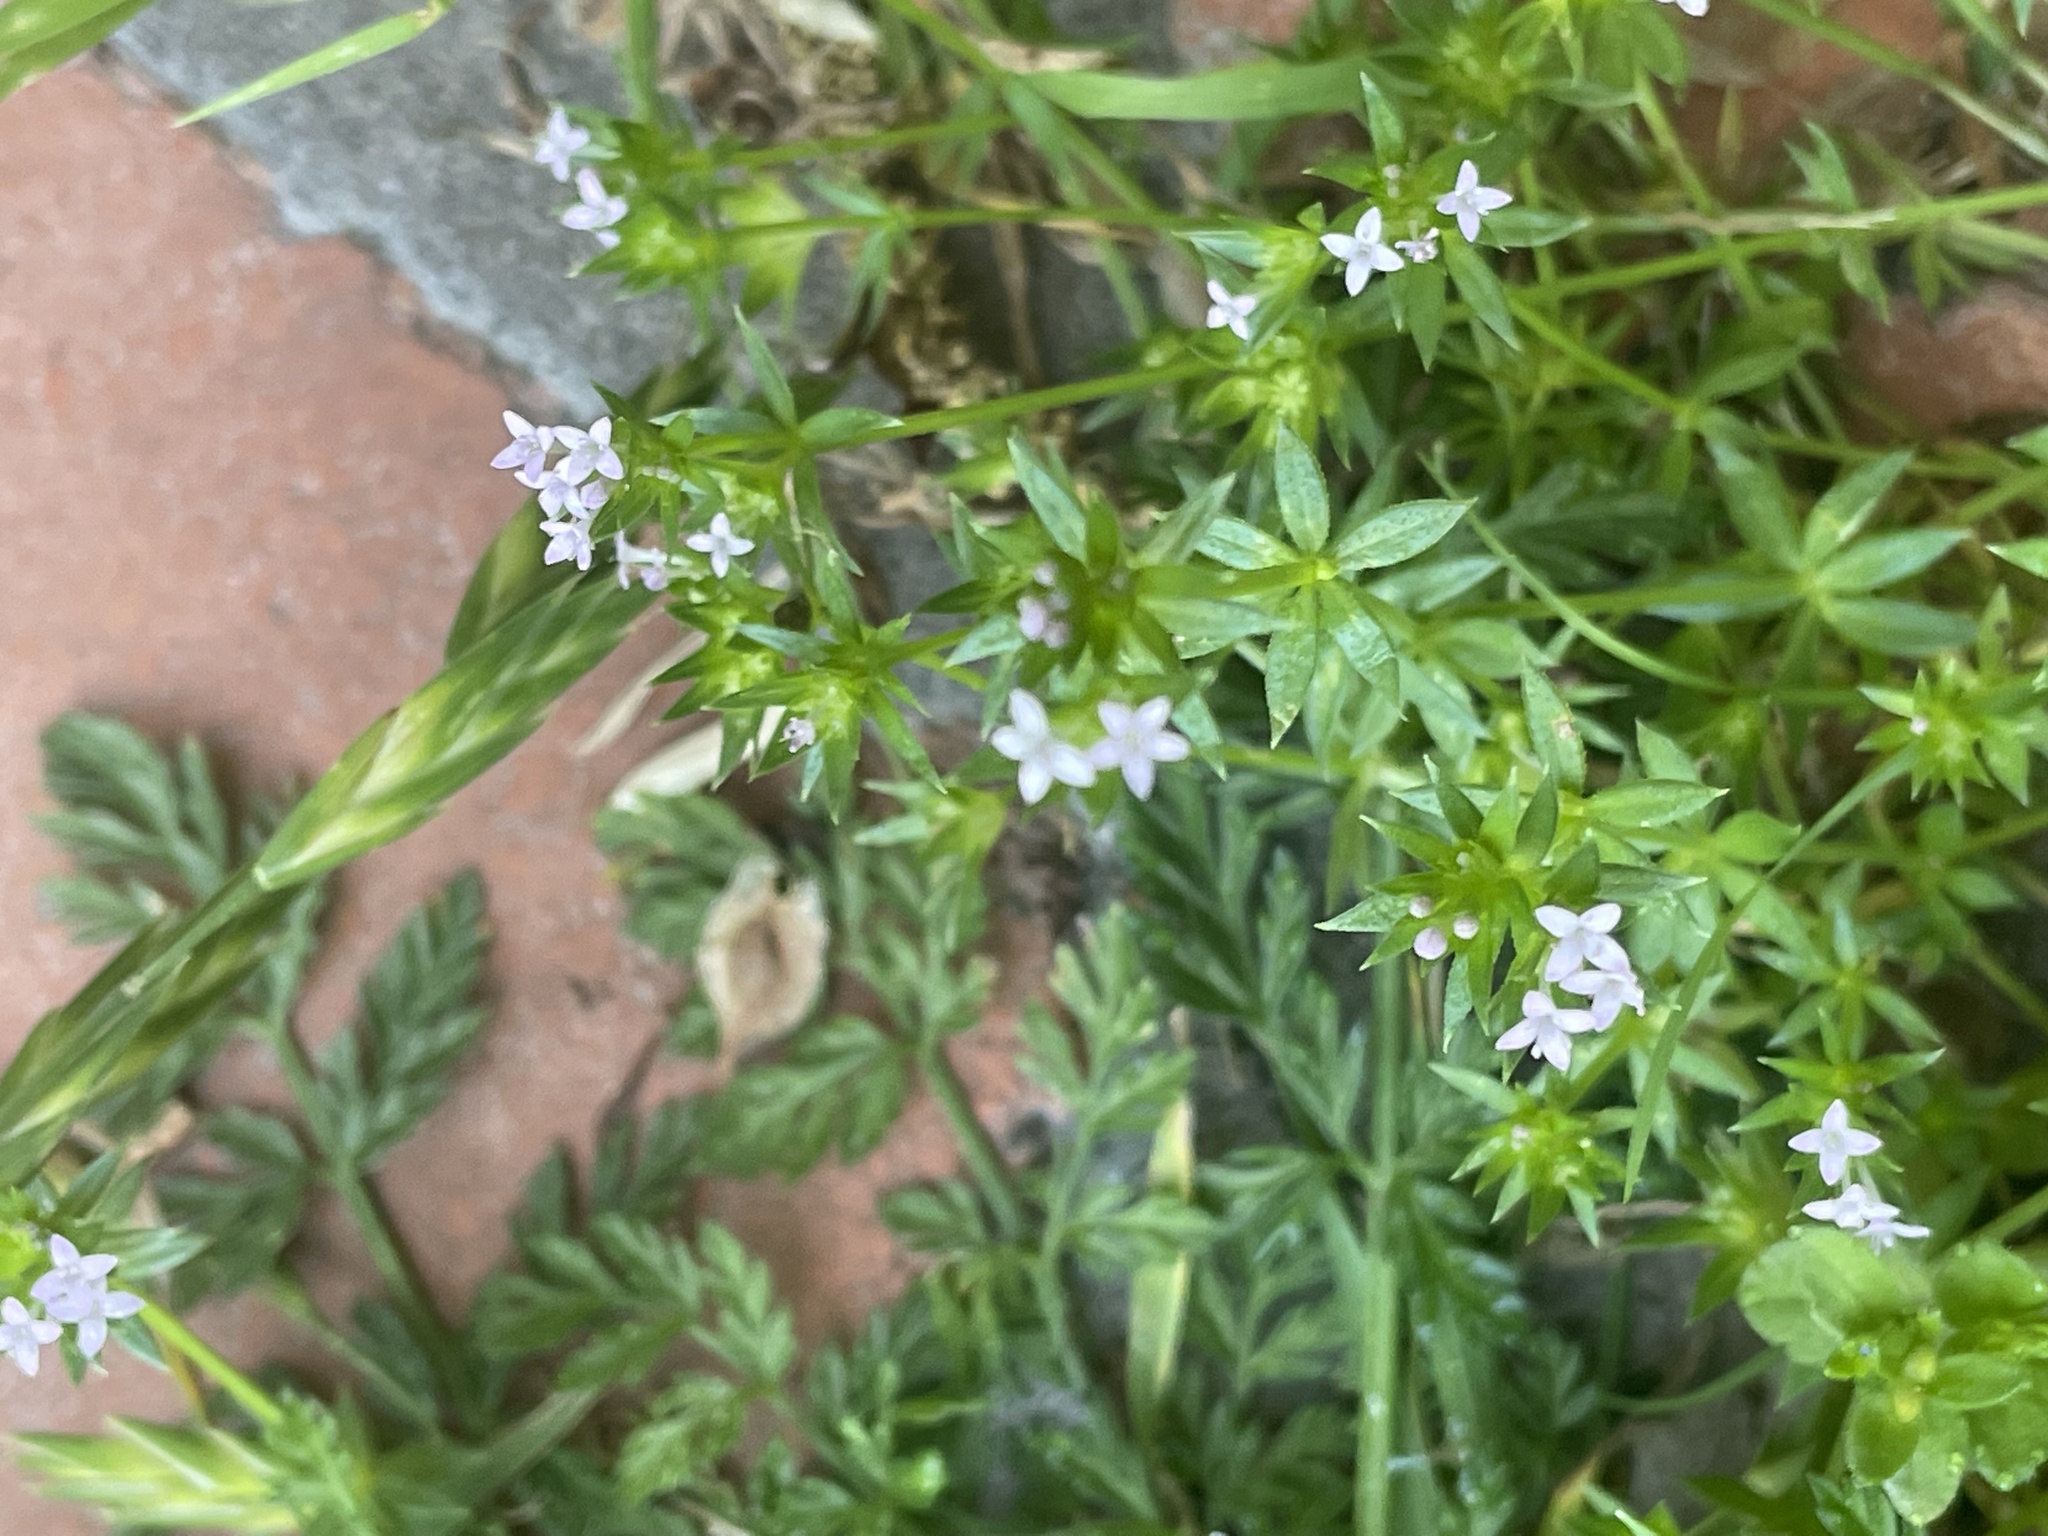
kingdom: Plantae
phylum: Tracheophyta
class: Magnoliopsida
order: Gentianales
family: Rubiaceae
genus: Sherardia
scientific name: Sherardia arvensis
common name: Field madder
